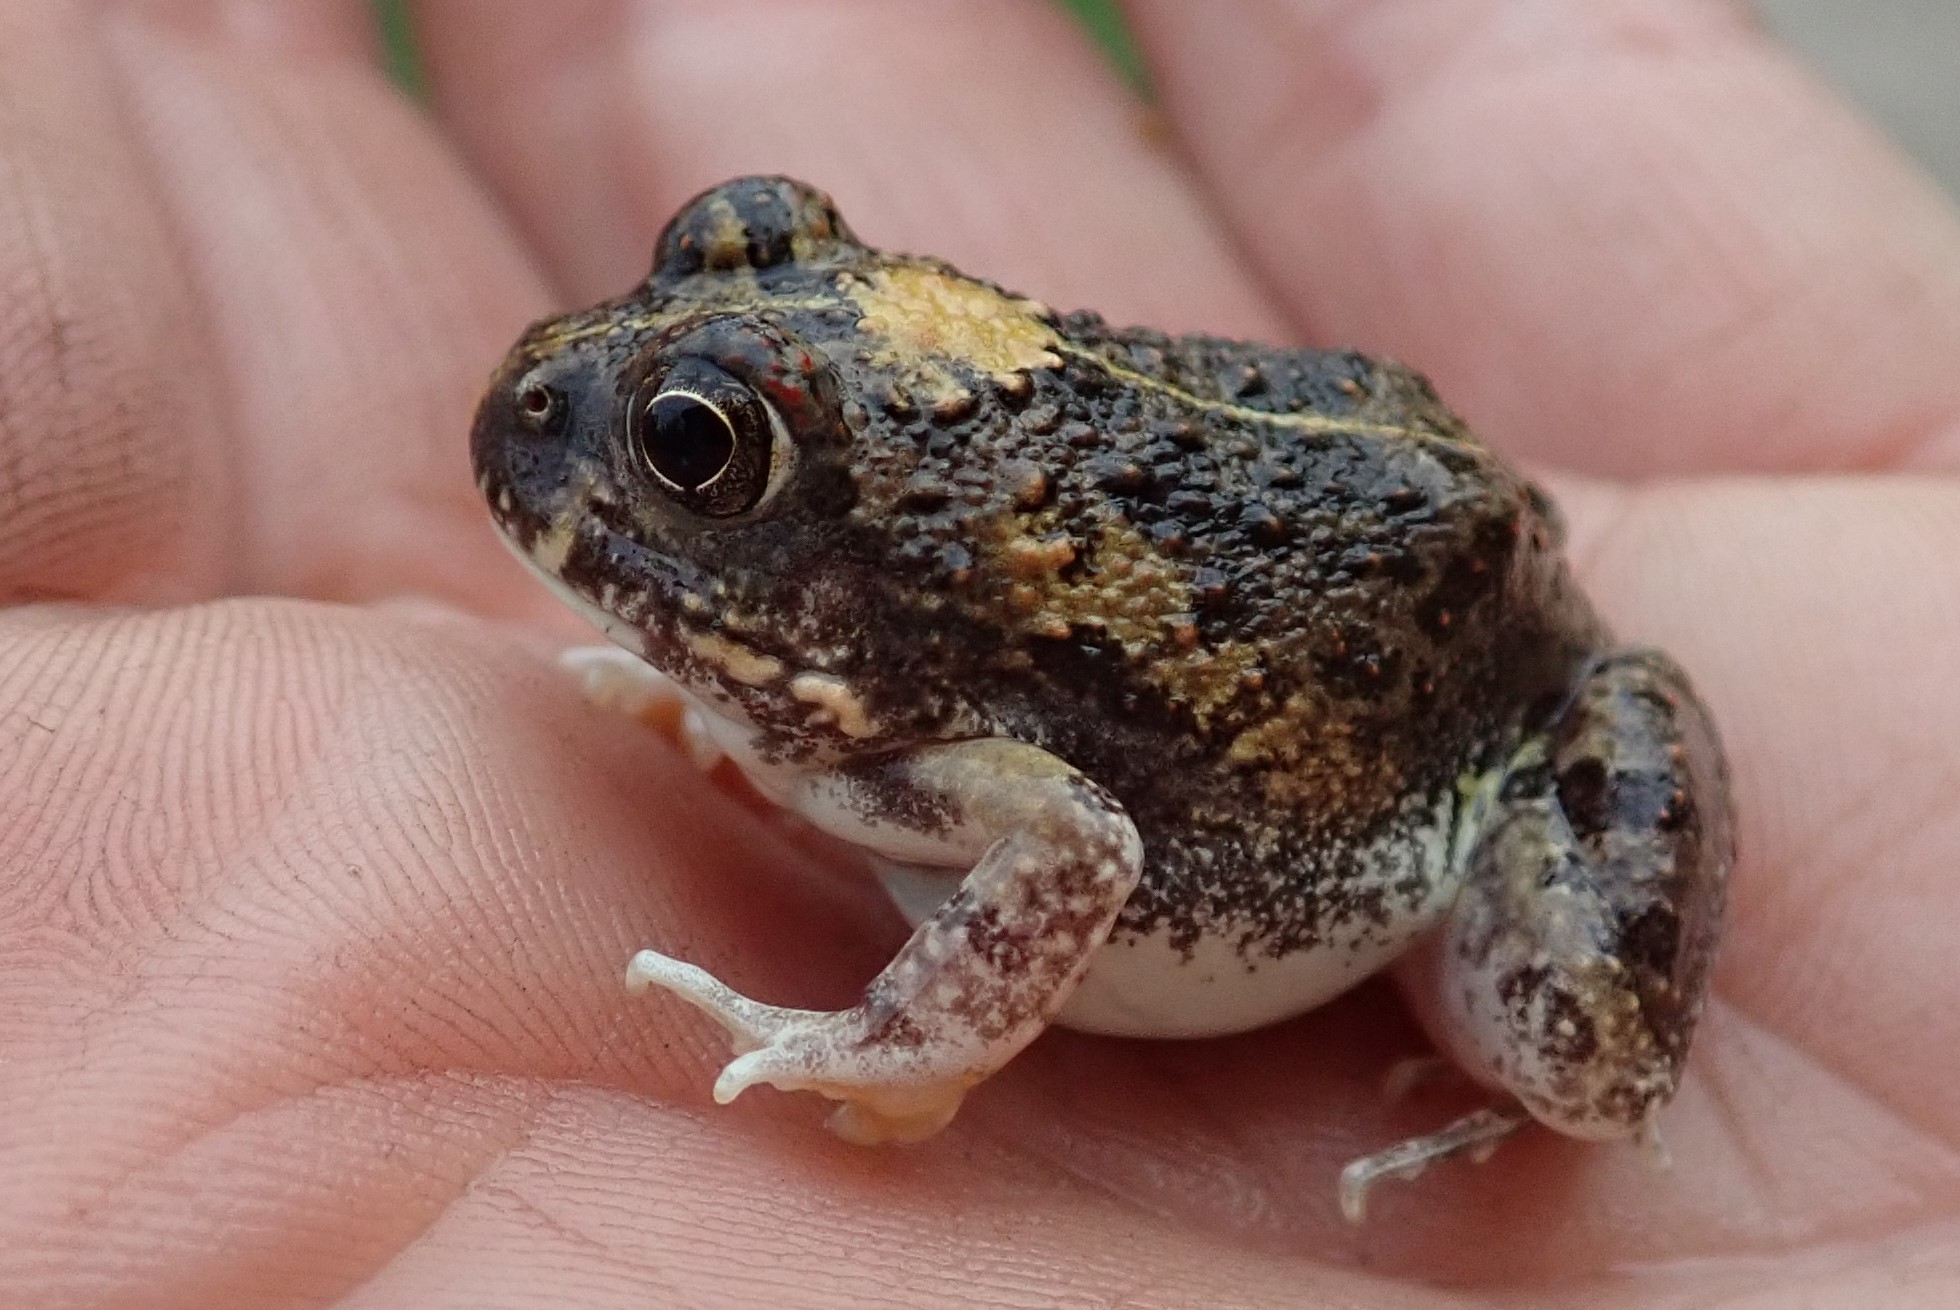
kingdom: Animalia
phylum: Chordata
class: Amphibia
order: Anura
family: Pyxicephalidae
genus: Tomopterna
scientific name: Tomopterna
